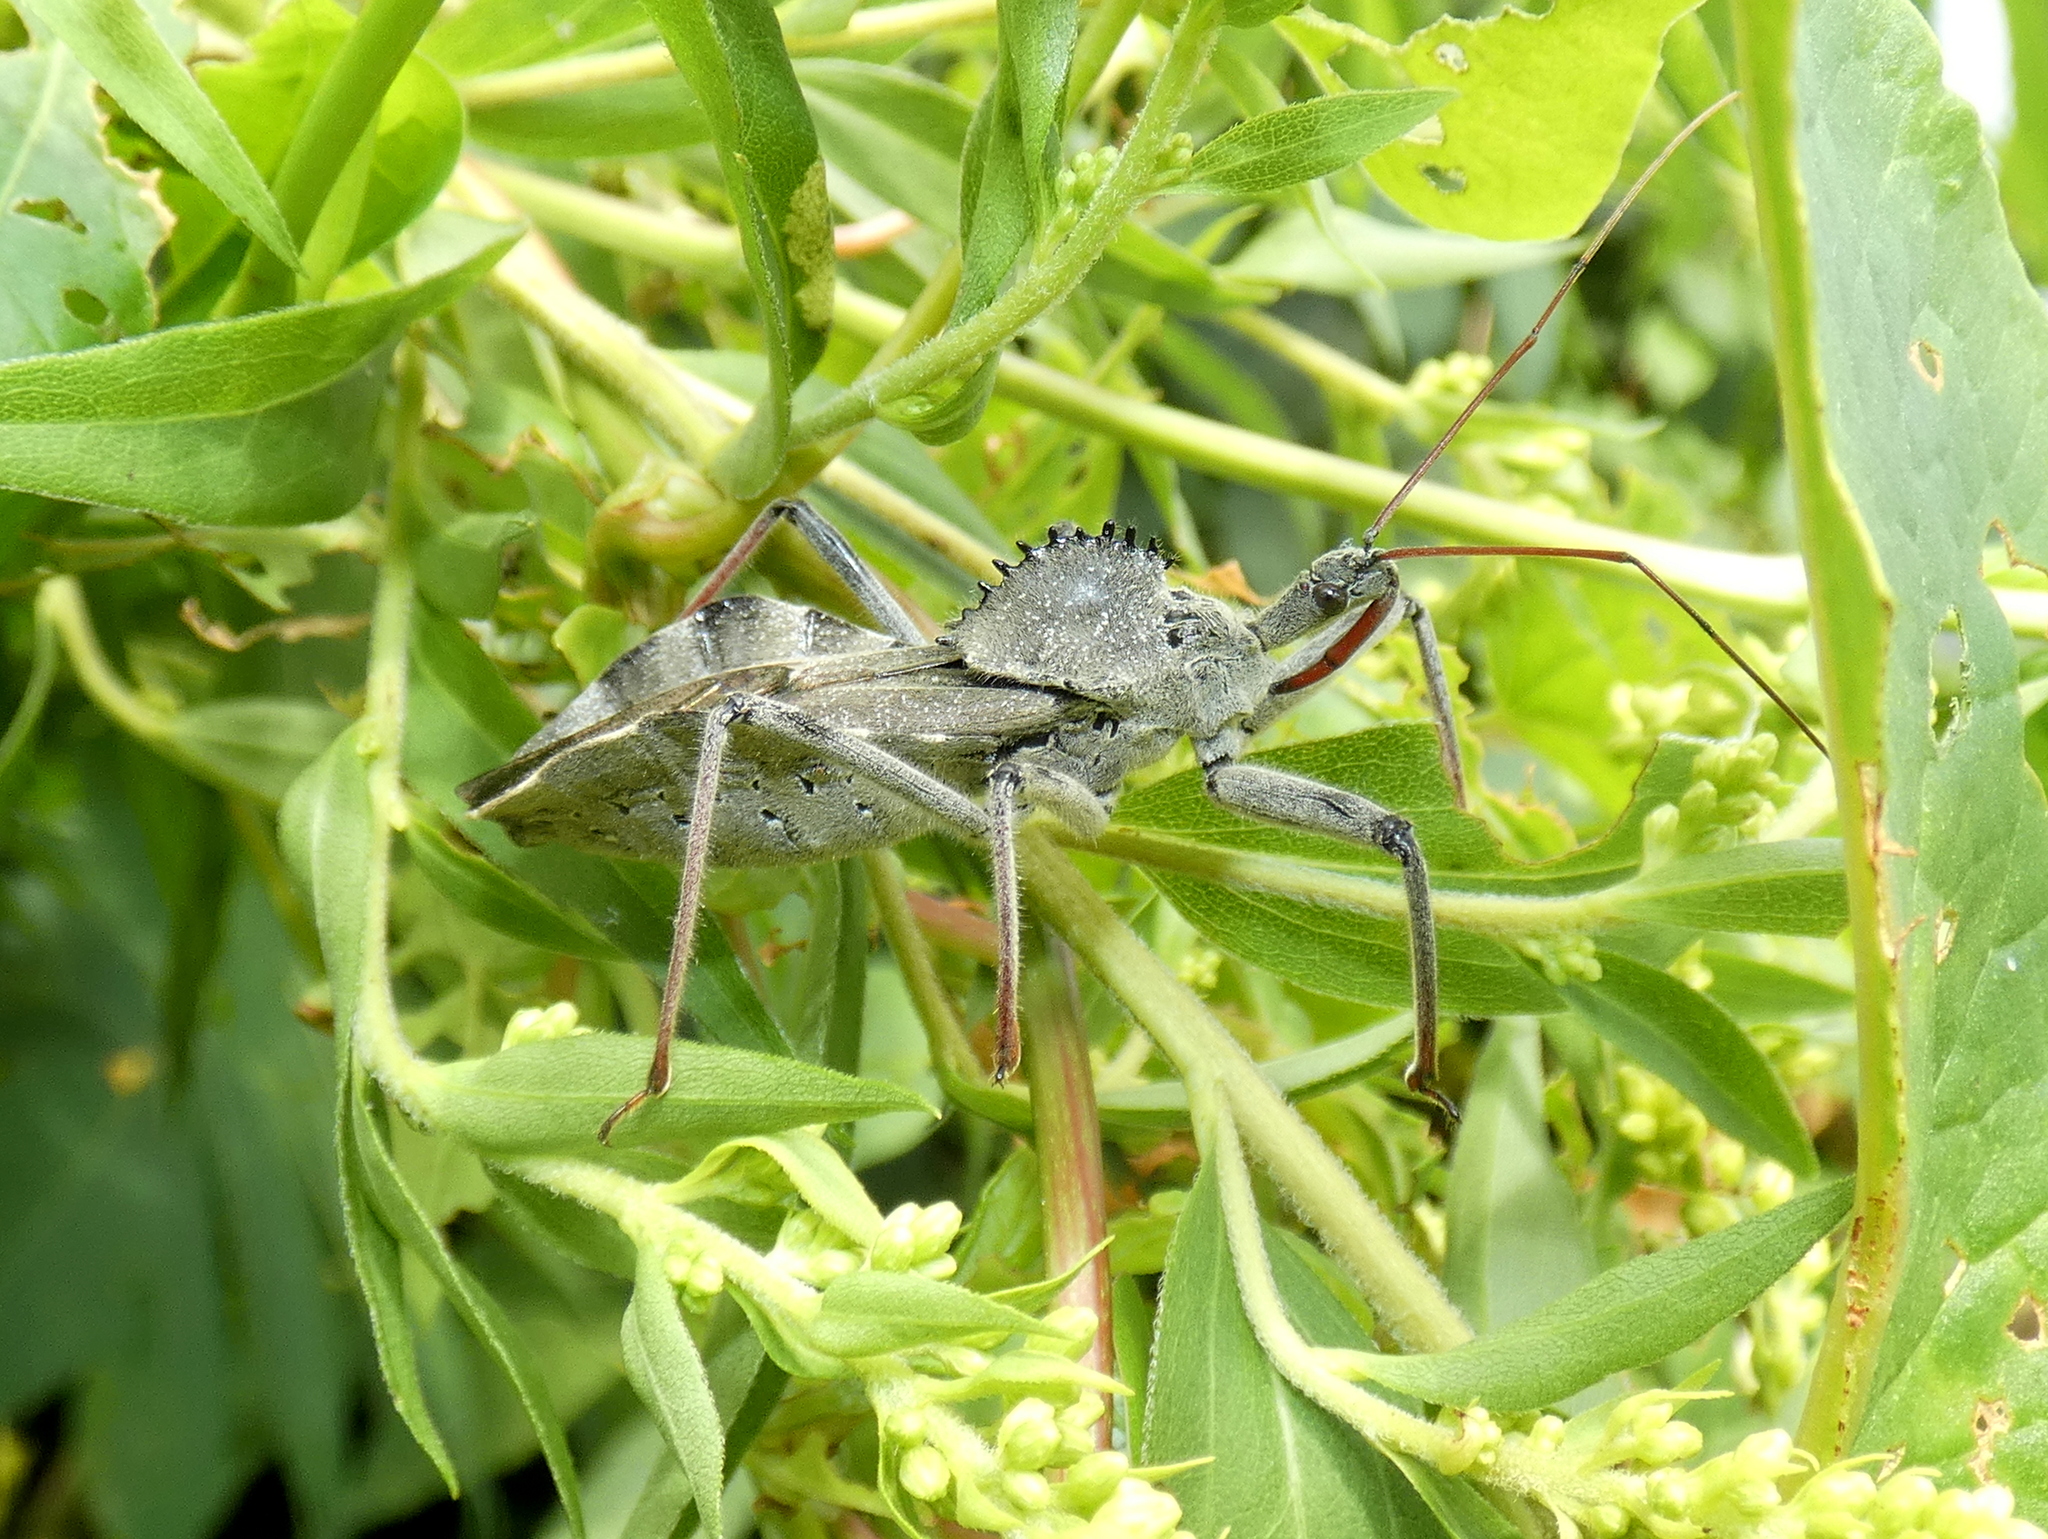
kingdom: Animalia
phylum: Arthropoda
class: Insecta
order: Hemiptera
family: Reduviidae
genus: Arilus
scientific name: Arilus cristatus
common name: North american wheel bug
